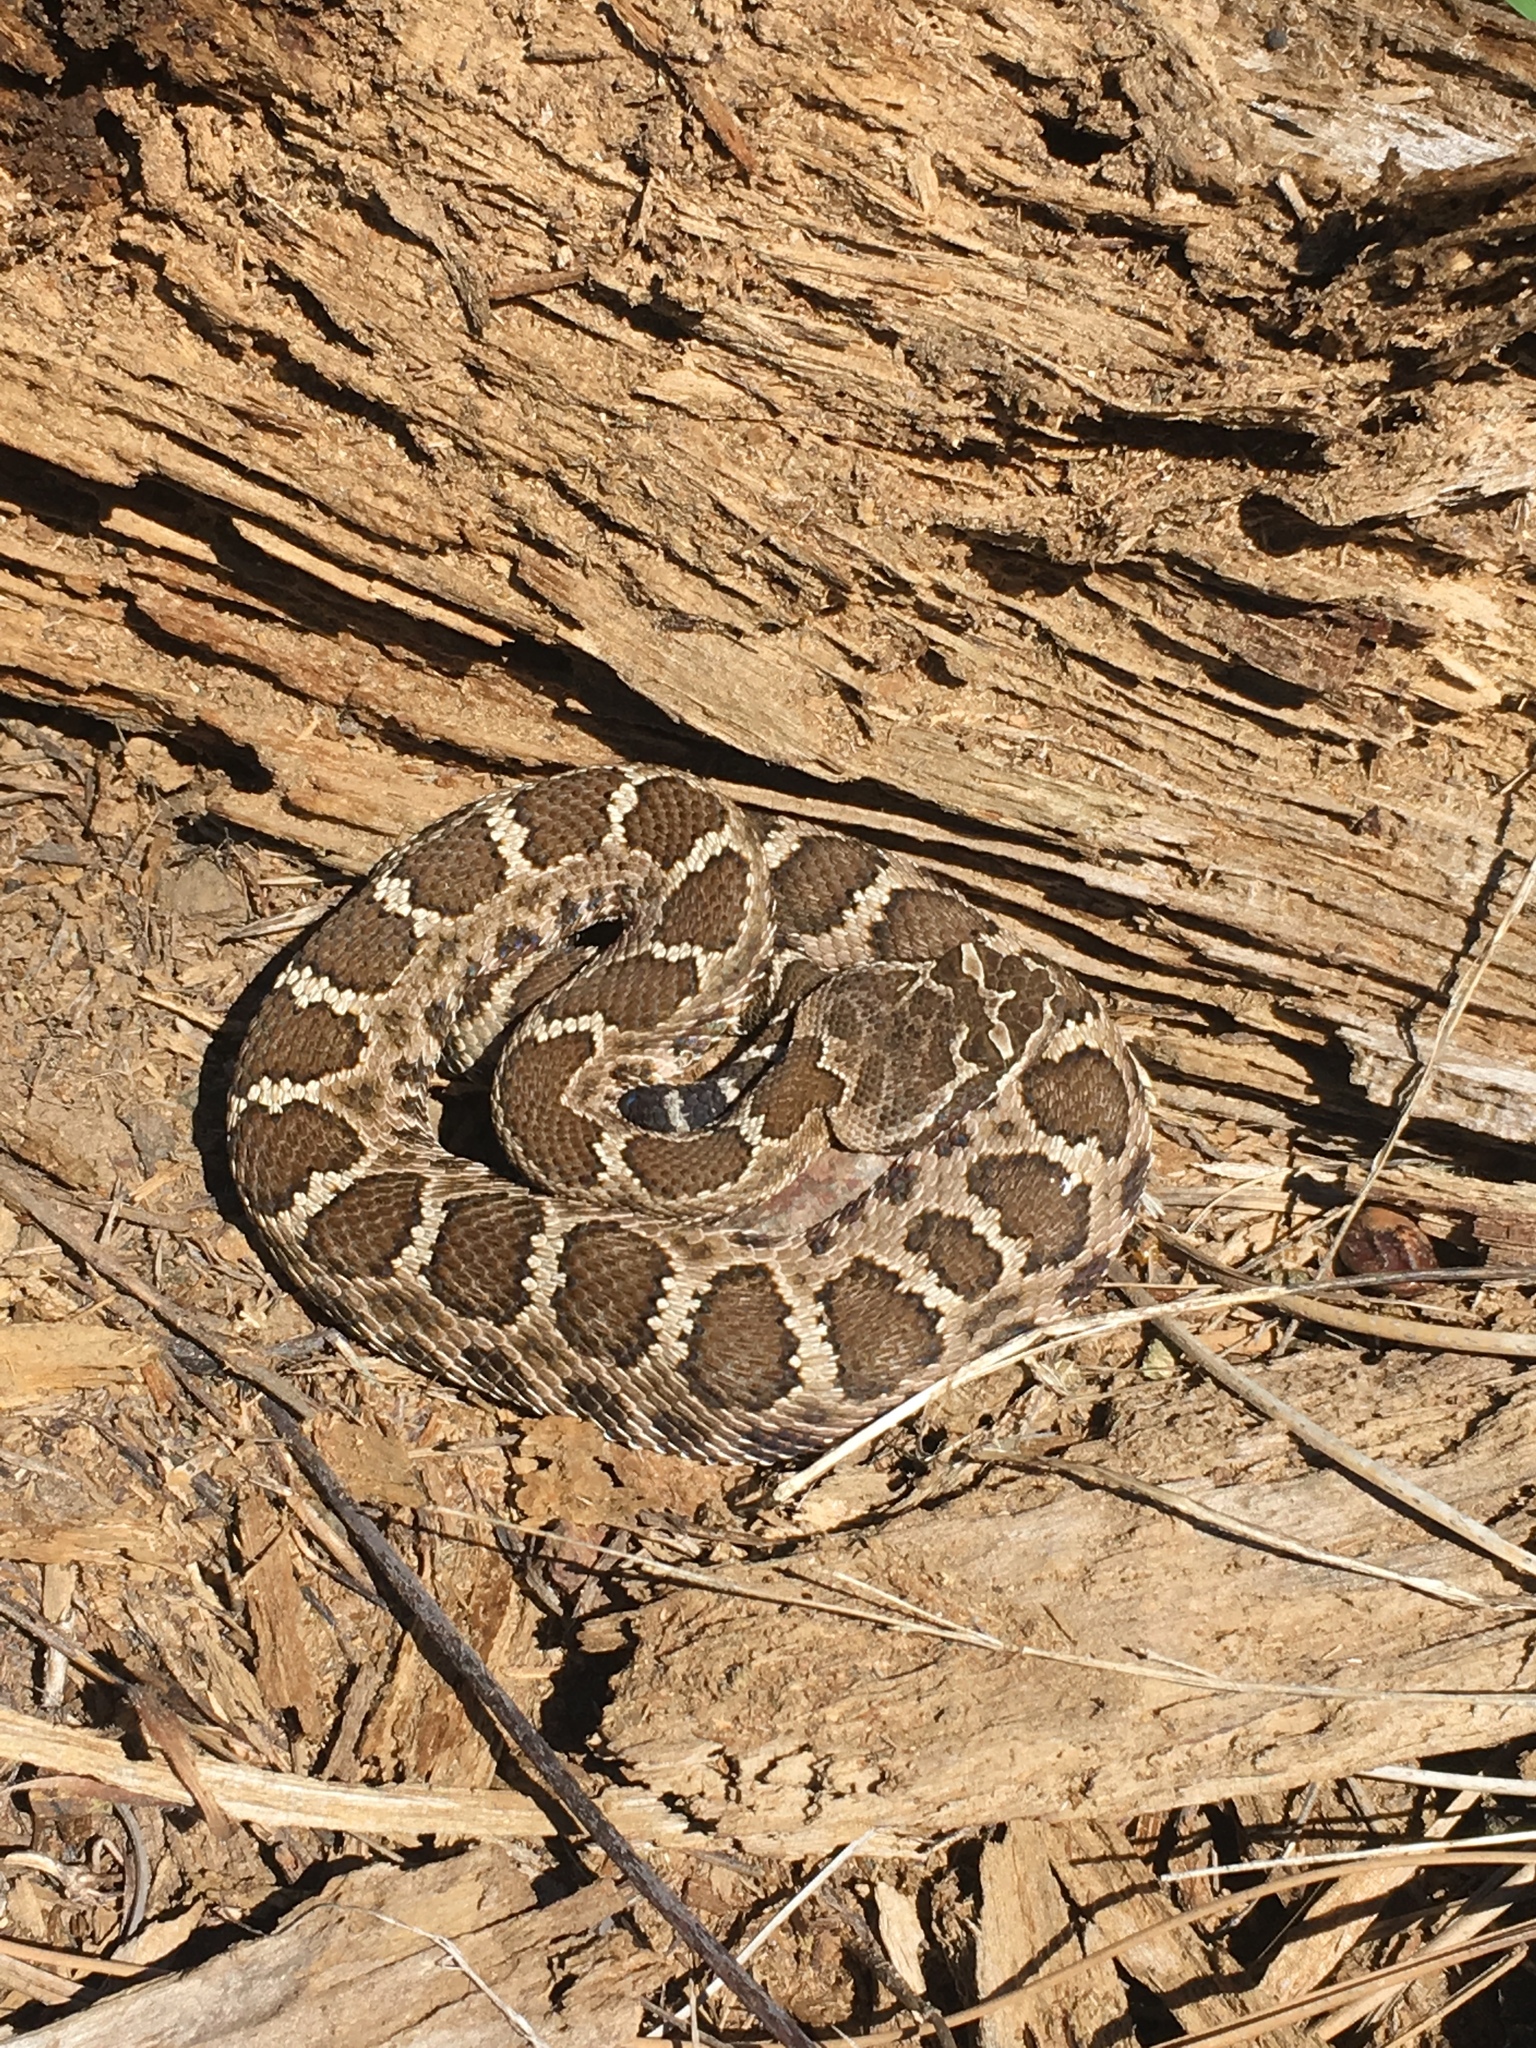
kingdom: Animalia
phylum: Chordata
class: Squamata
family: Viperidae
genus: Crotalus
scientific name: Crotalus oreganus
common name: Abyssus
